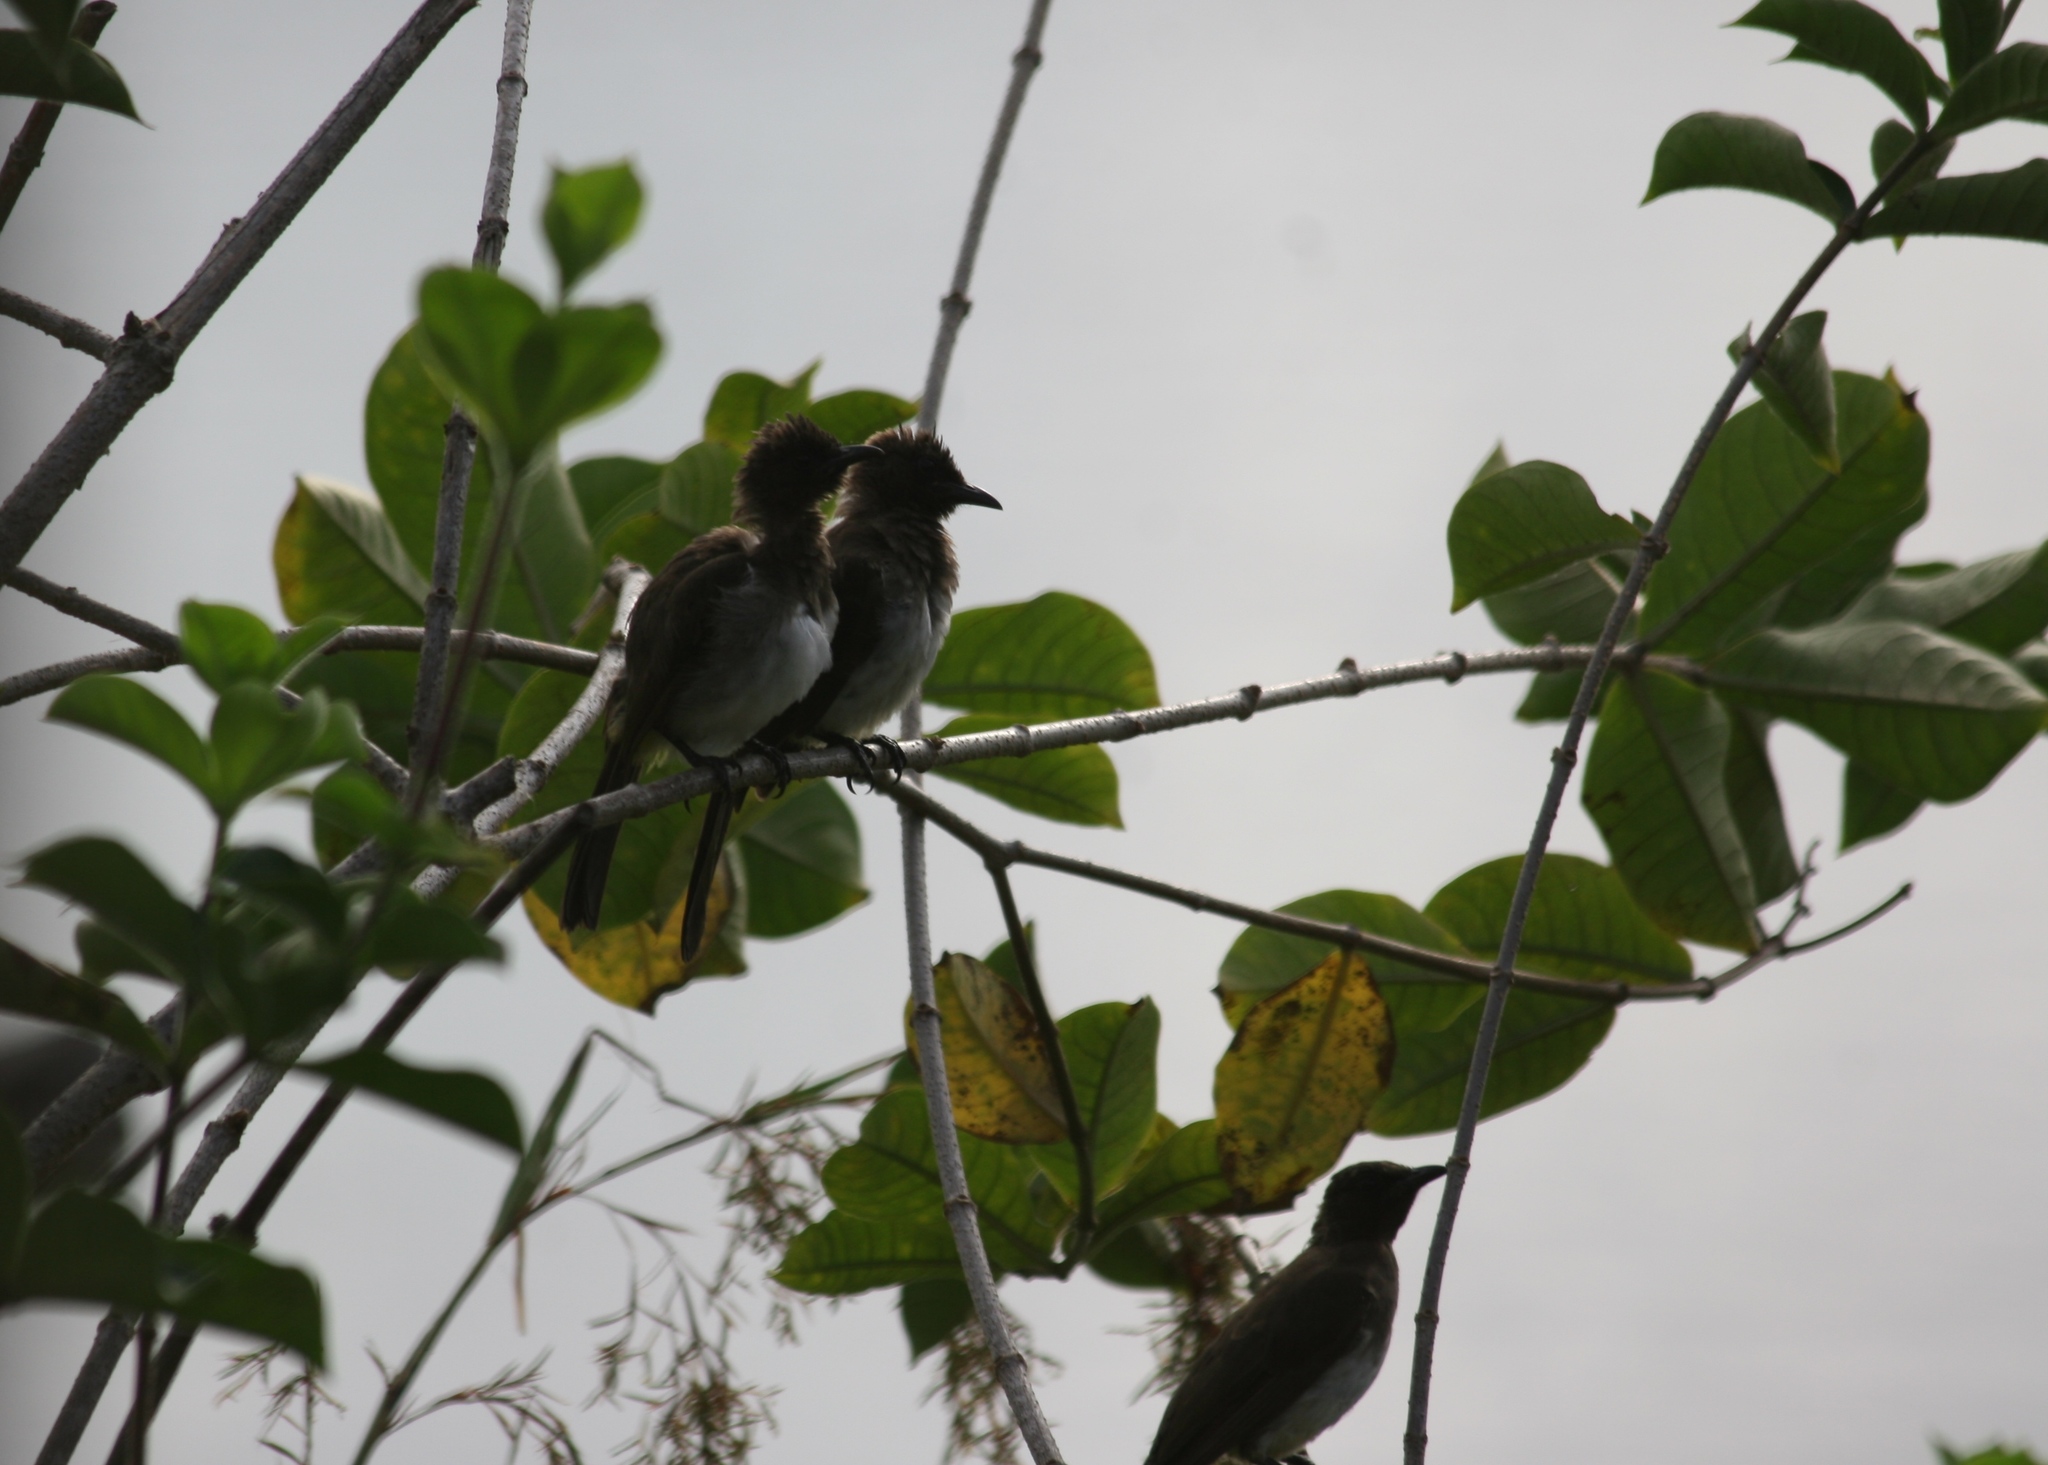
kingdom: Animalia
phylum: Chordata
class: Aves
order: Passeriformes
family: Pycnonotidae
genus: Pycnonotus
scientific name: Pycnonotus barbatus
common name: Common bulbul
